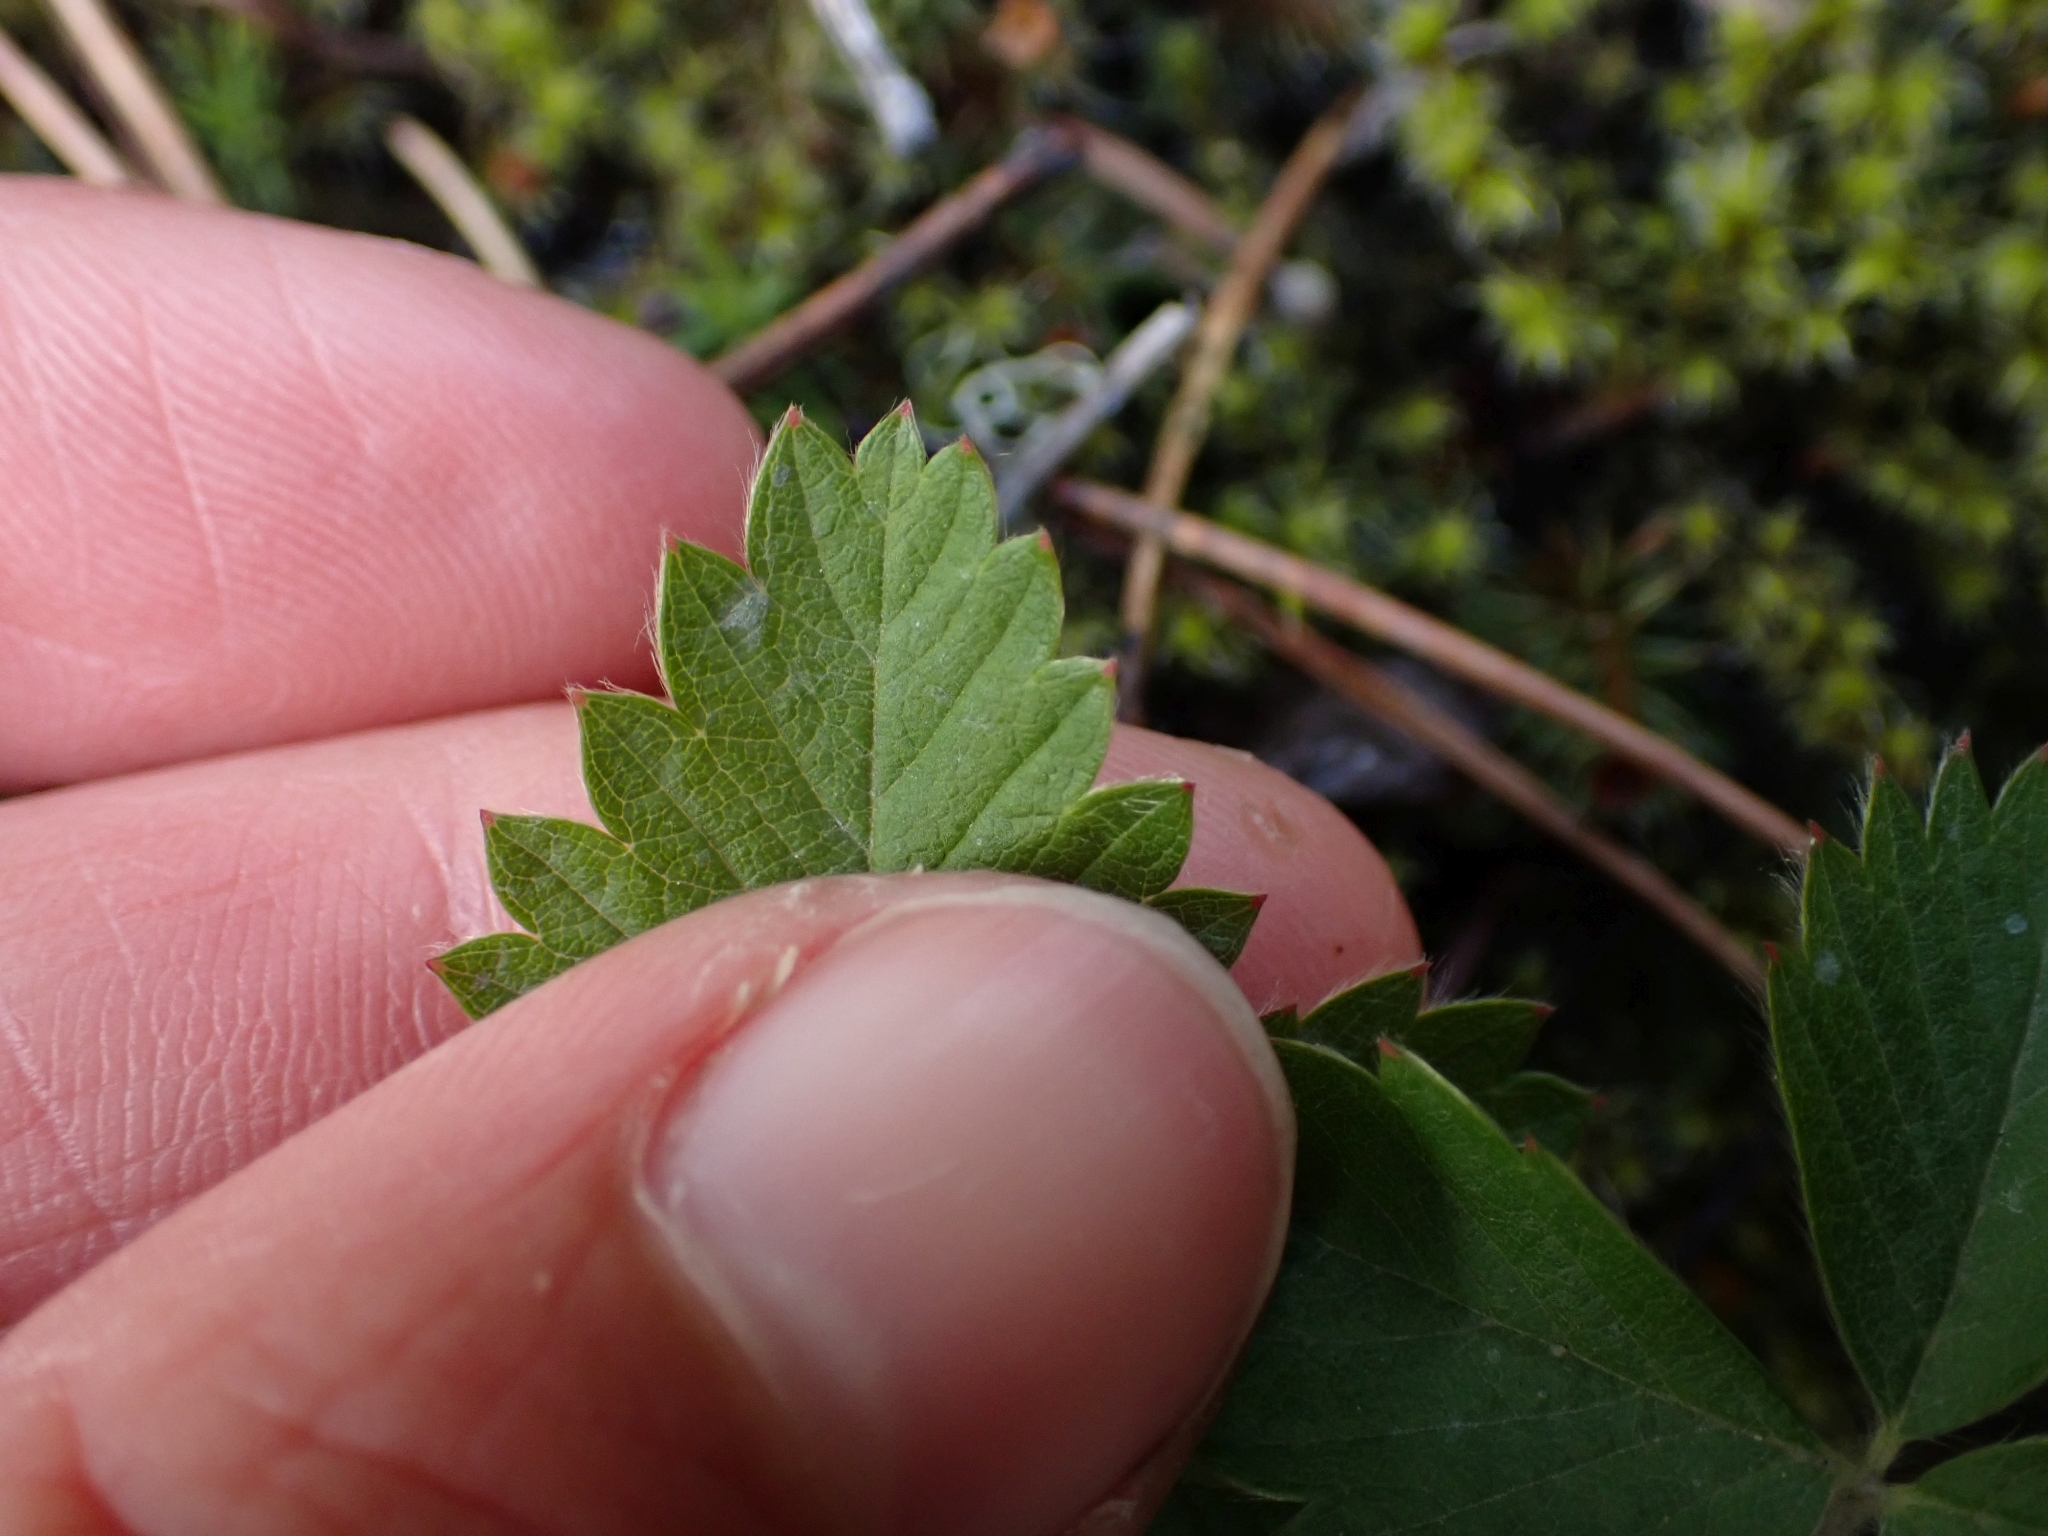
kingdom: Plantae
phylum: Tracheophyta
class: Magnoliopsida
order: Rosales
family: Rosaceae
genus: Fragaria
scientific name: Fragaria virginiana
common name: Thickleaved wild strawberry
